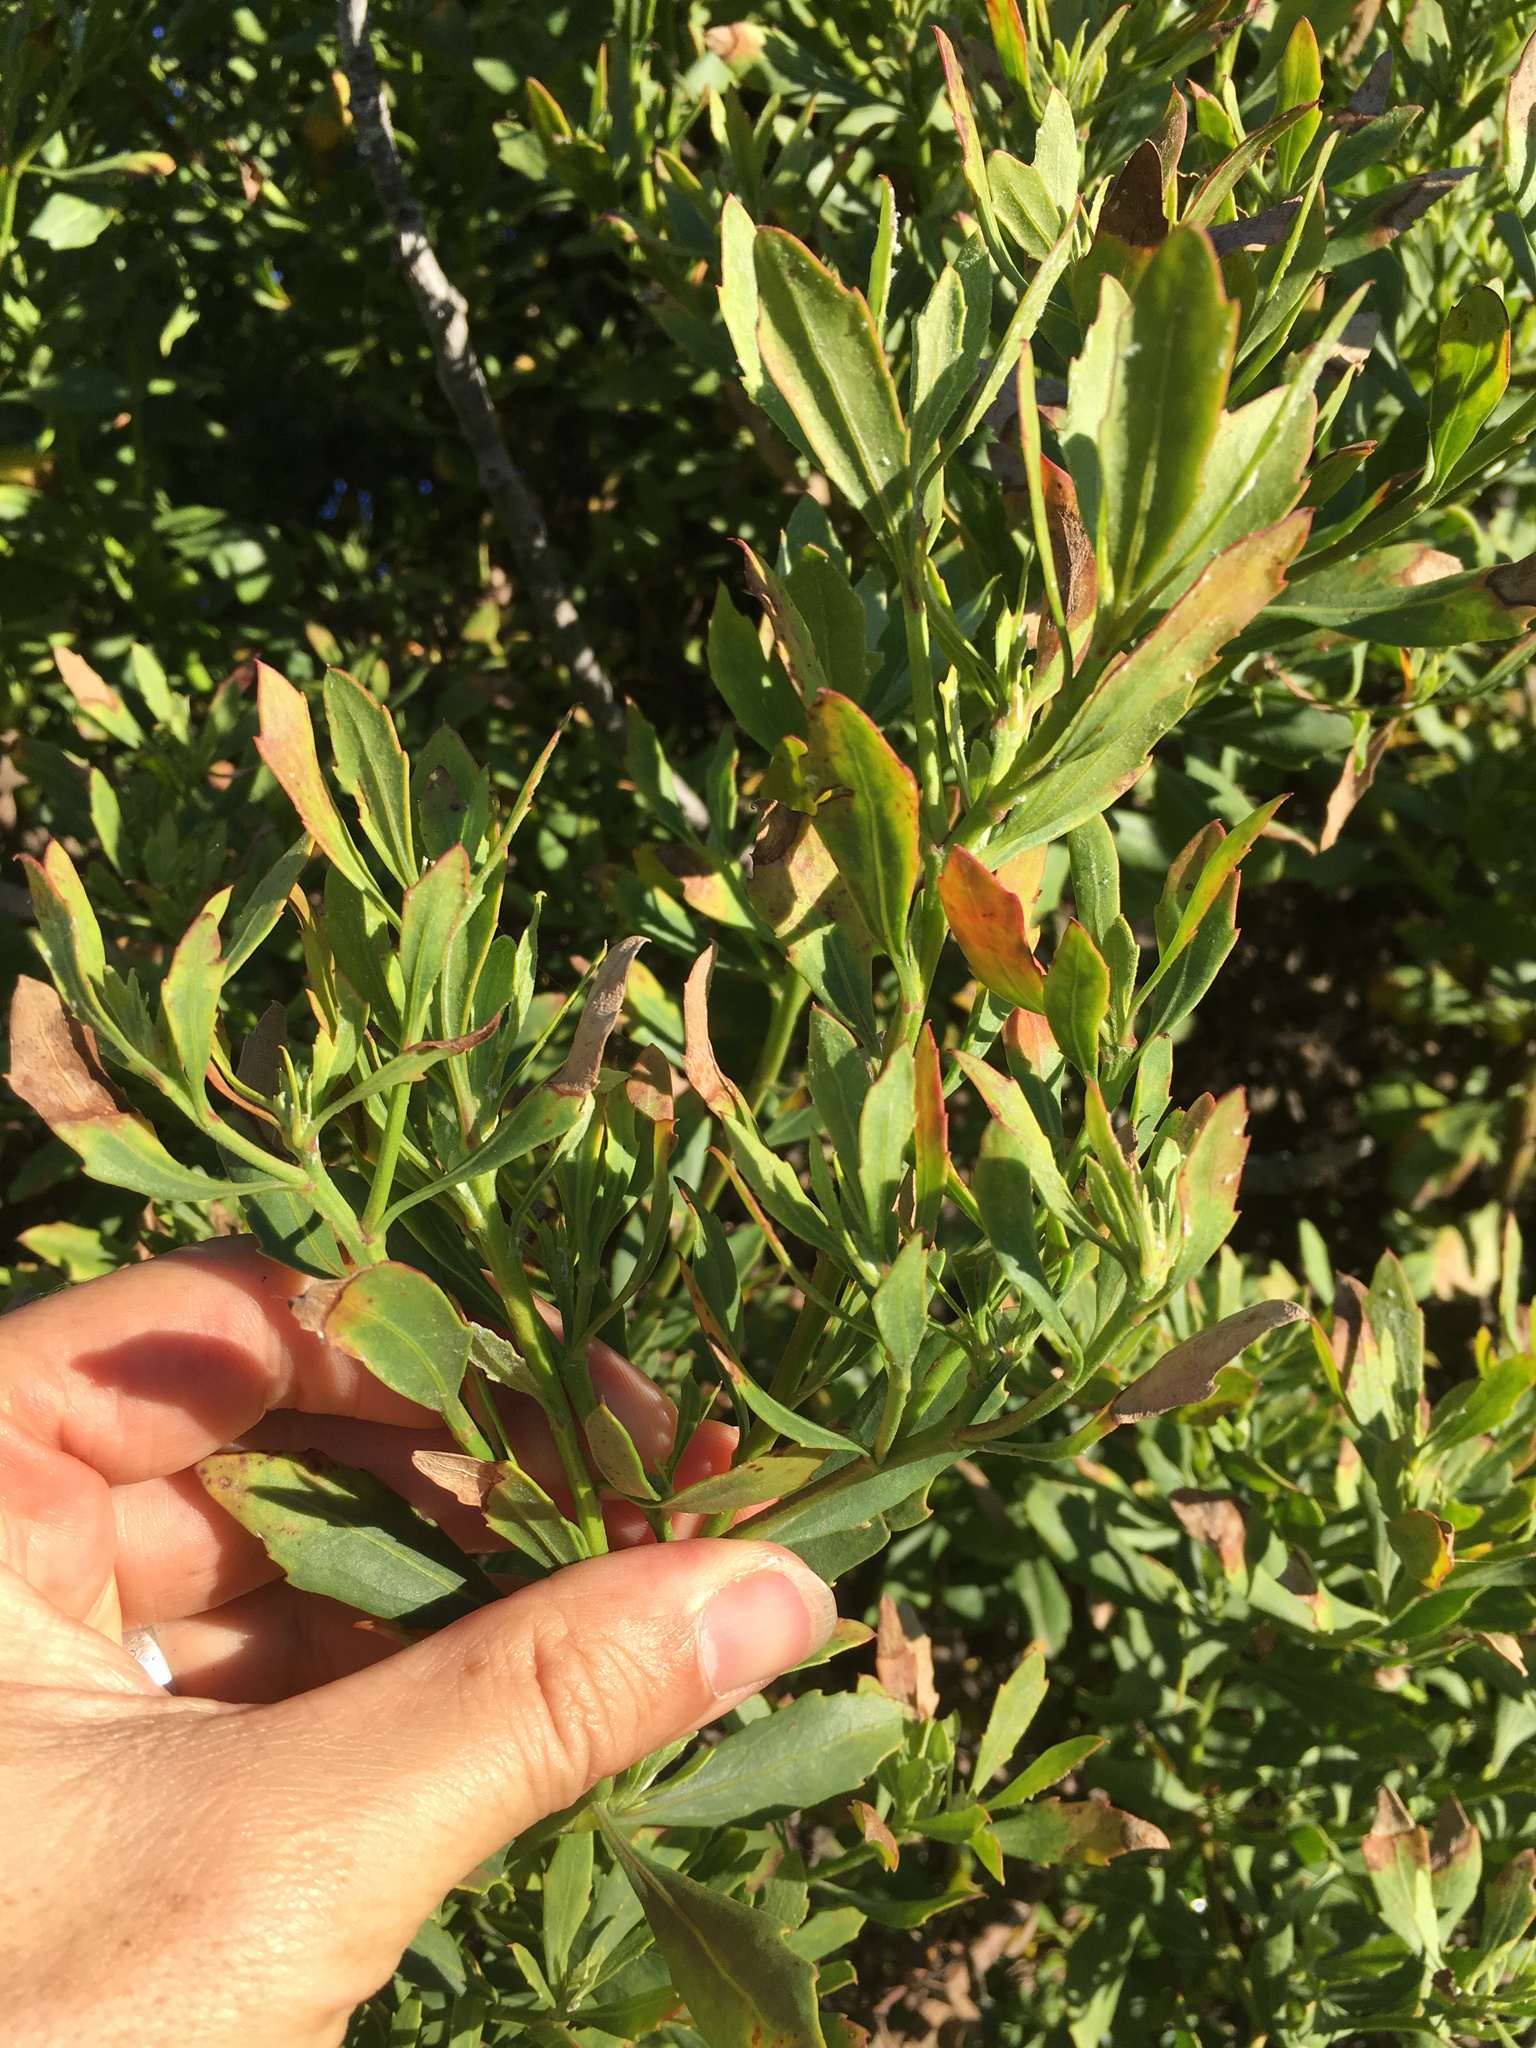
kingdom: Plantae
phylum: Tracheophyta
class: Magnoliopsida
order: Asterales
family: Asteraceae
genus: Osteospermum
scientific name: Osteospermum moniliferum
